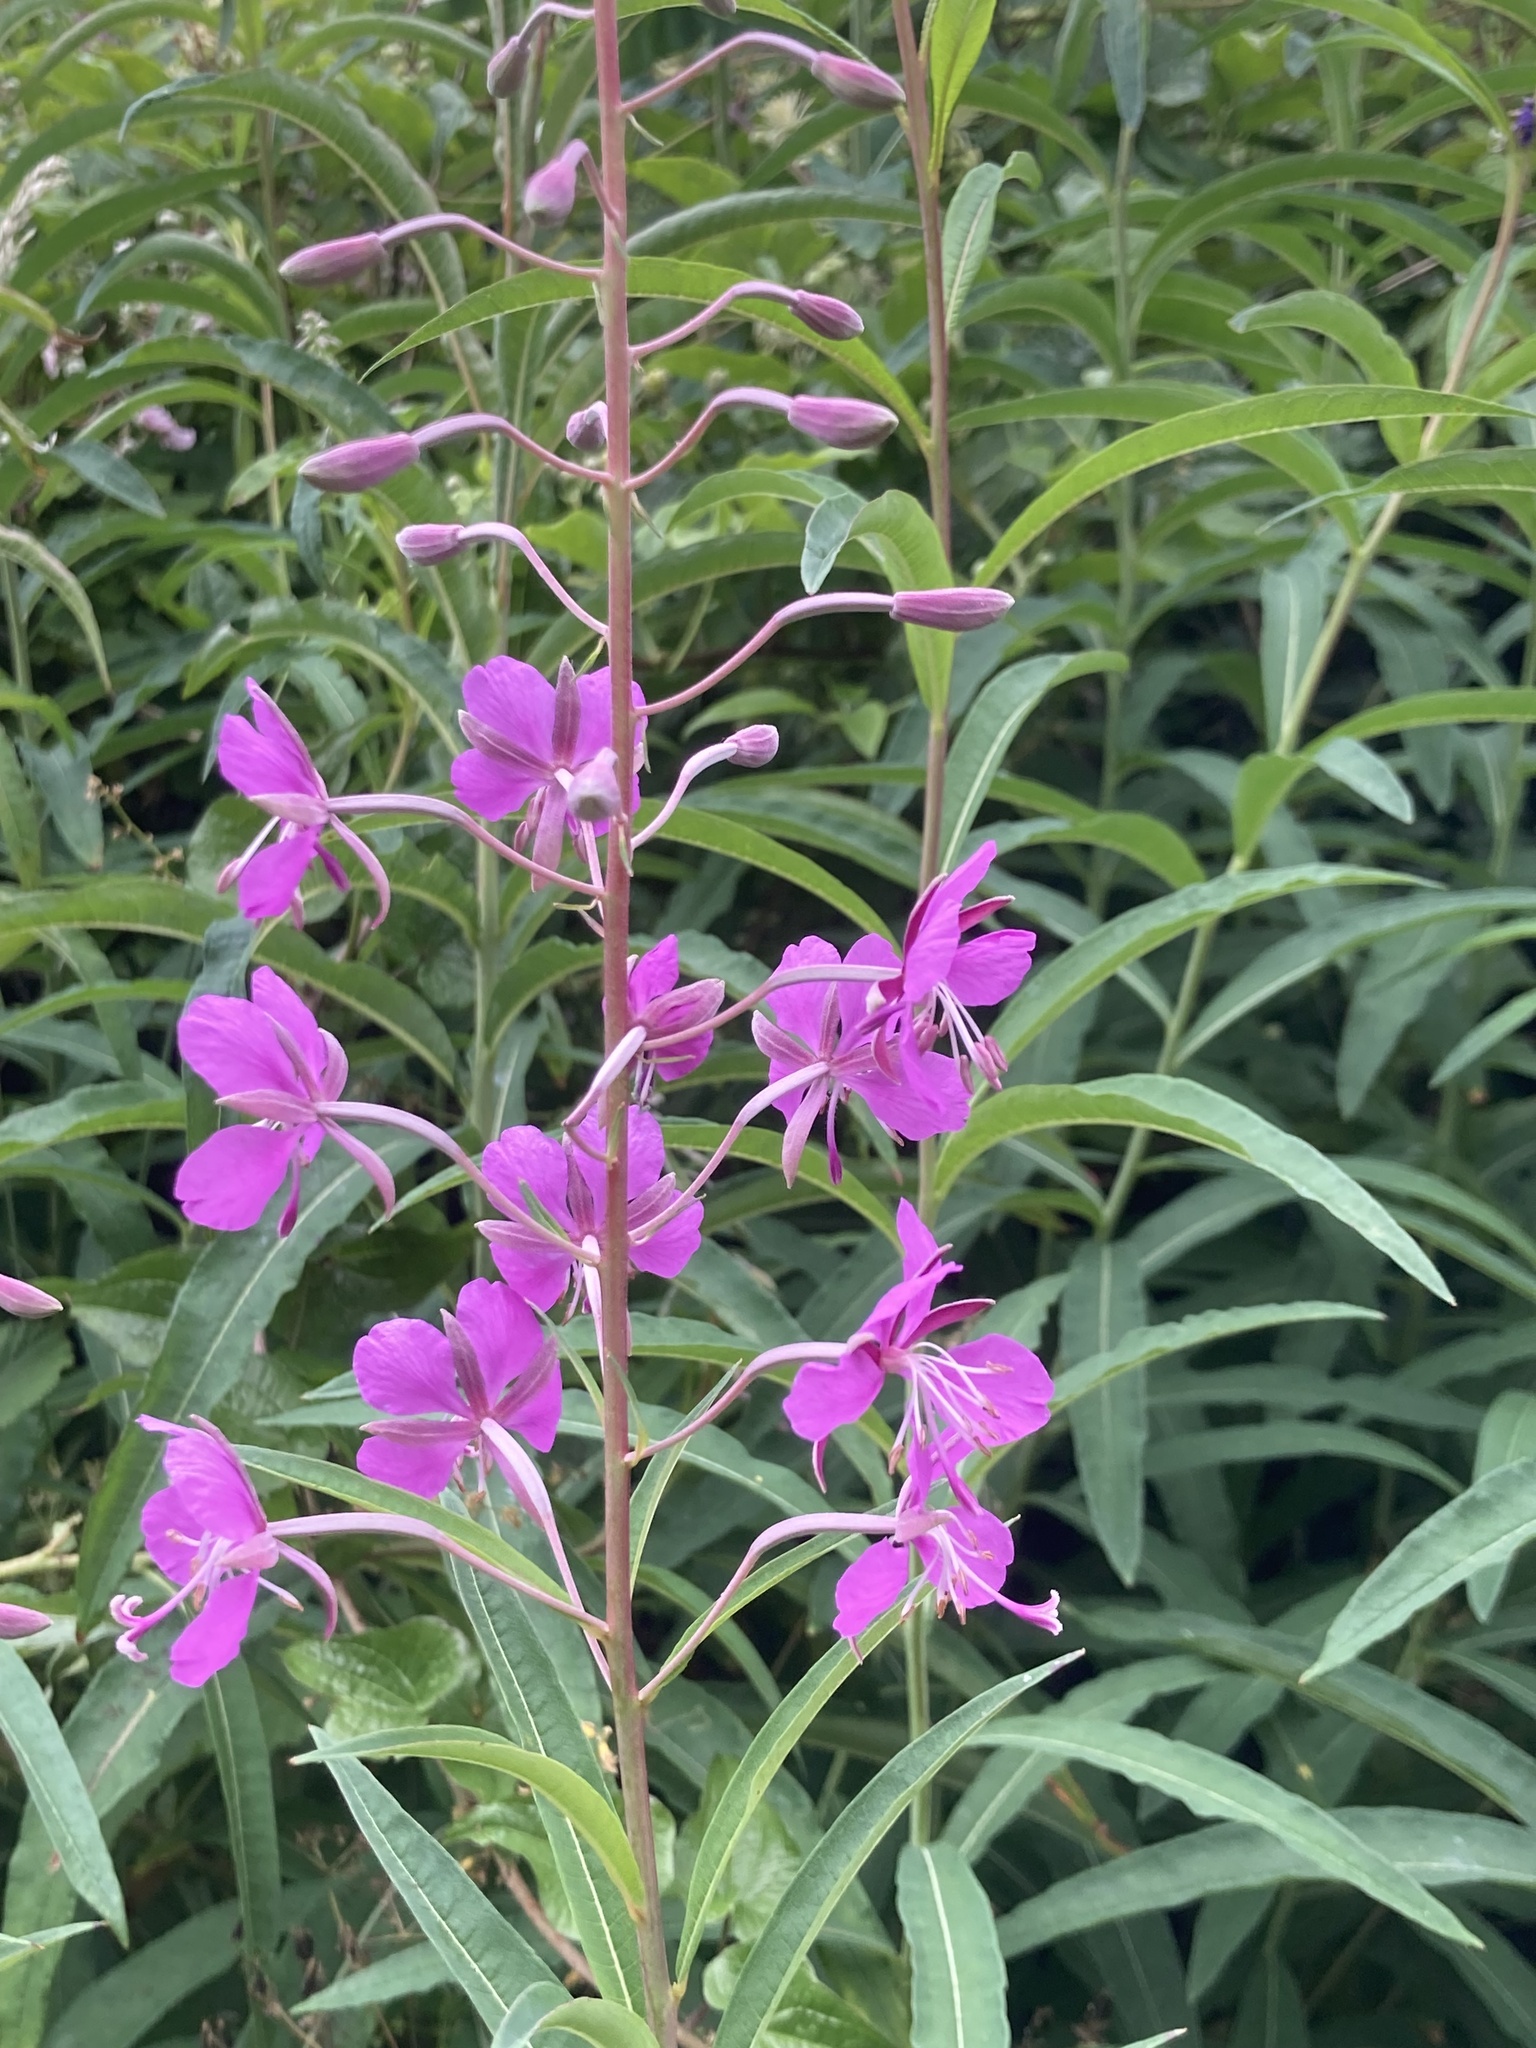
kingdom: Plantae
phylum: Tracheophyta
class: Magnoliopsida
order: Myrtales
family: Onagraceae
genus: Chamaenerion
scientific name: Chamaenerion angustifolium
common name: Fireweed
